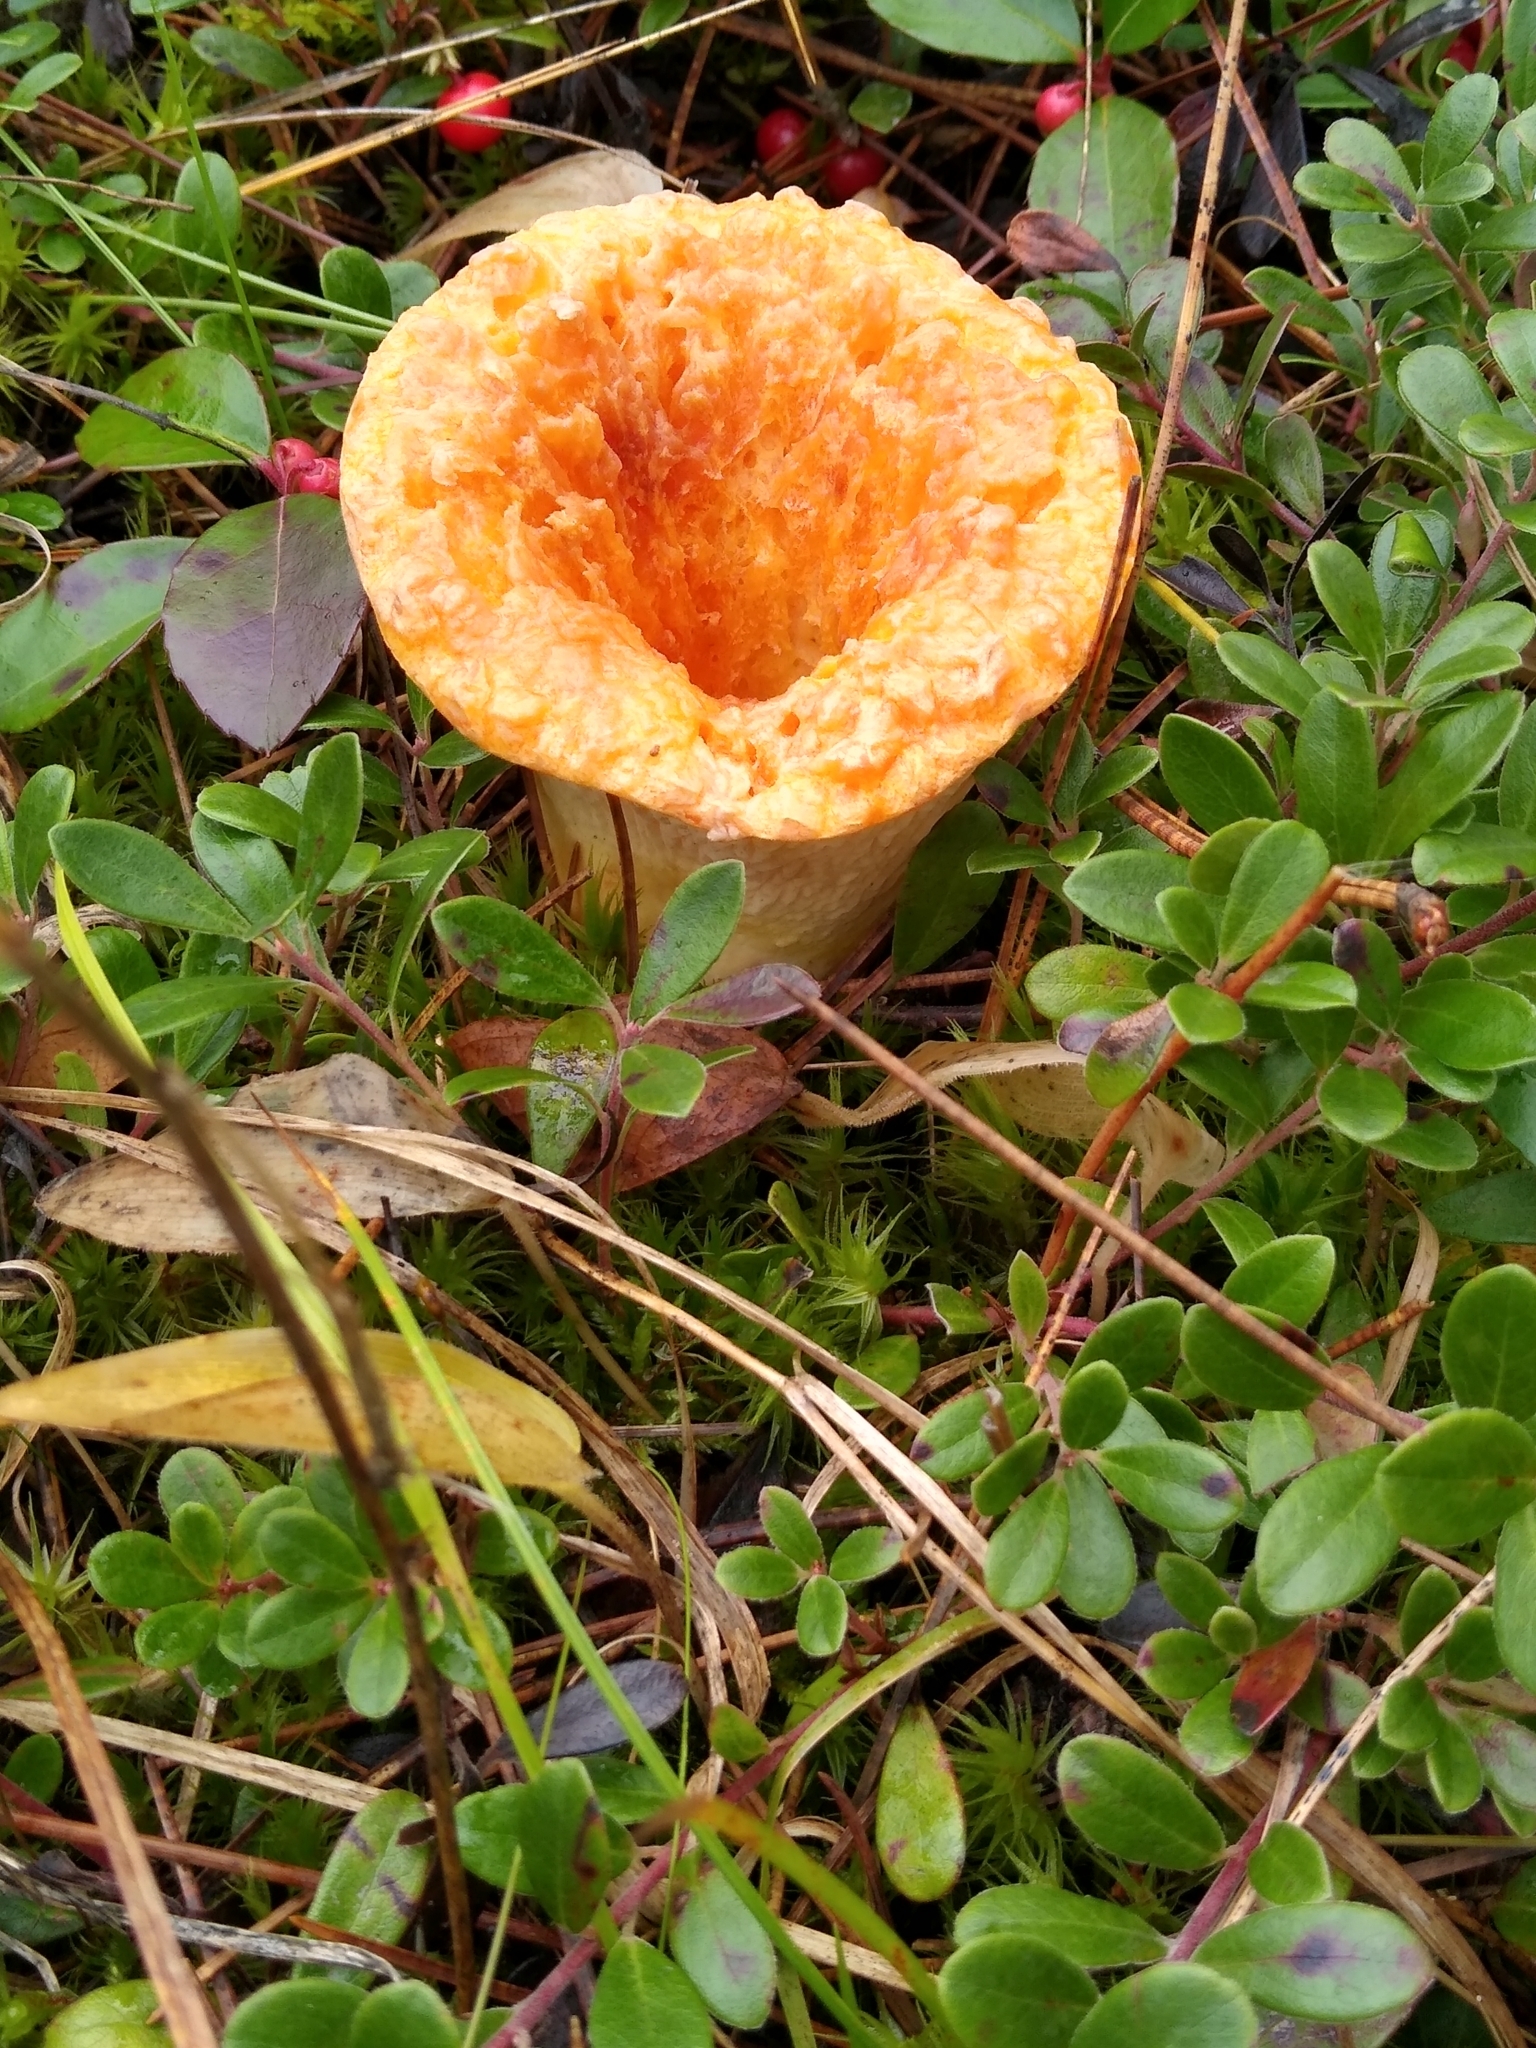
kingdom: Fungi
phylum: Basidiomycota
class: Agaricomycetes
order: Gomphales
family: Gomphaceae
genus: Turbinellus
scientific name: Turbinellus floccosus
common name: Scaly chanterelle
